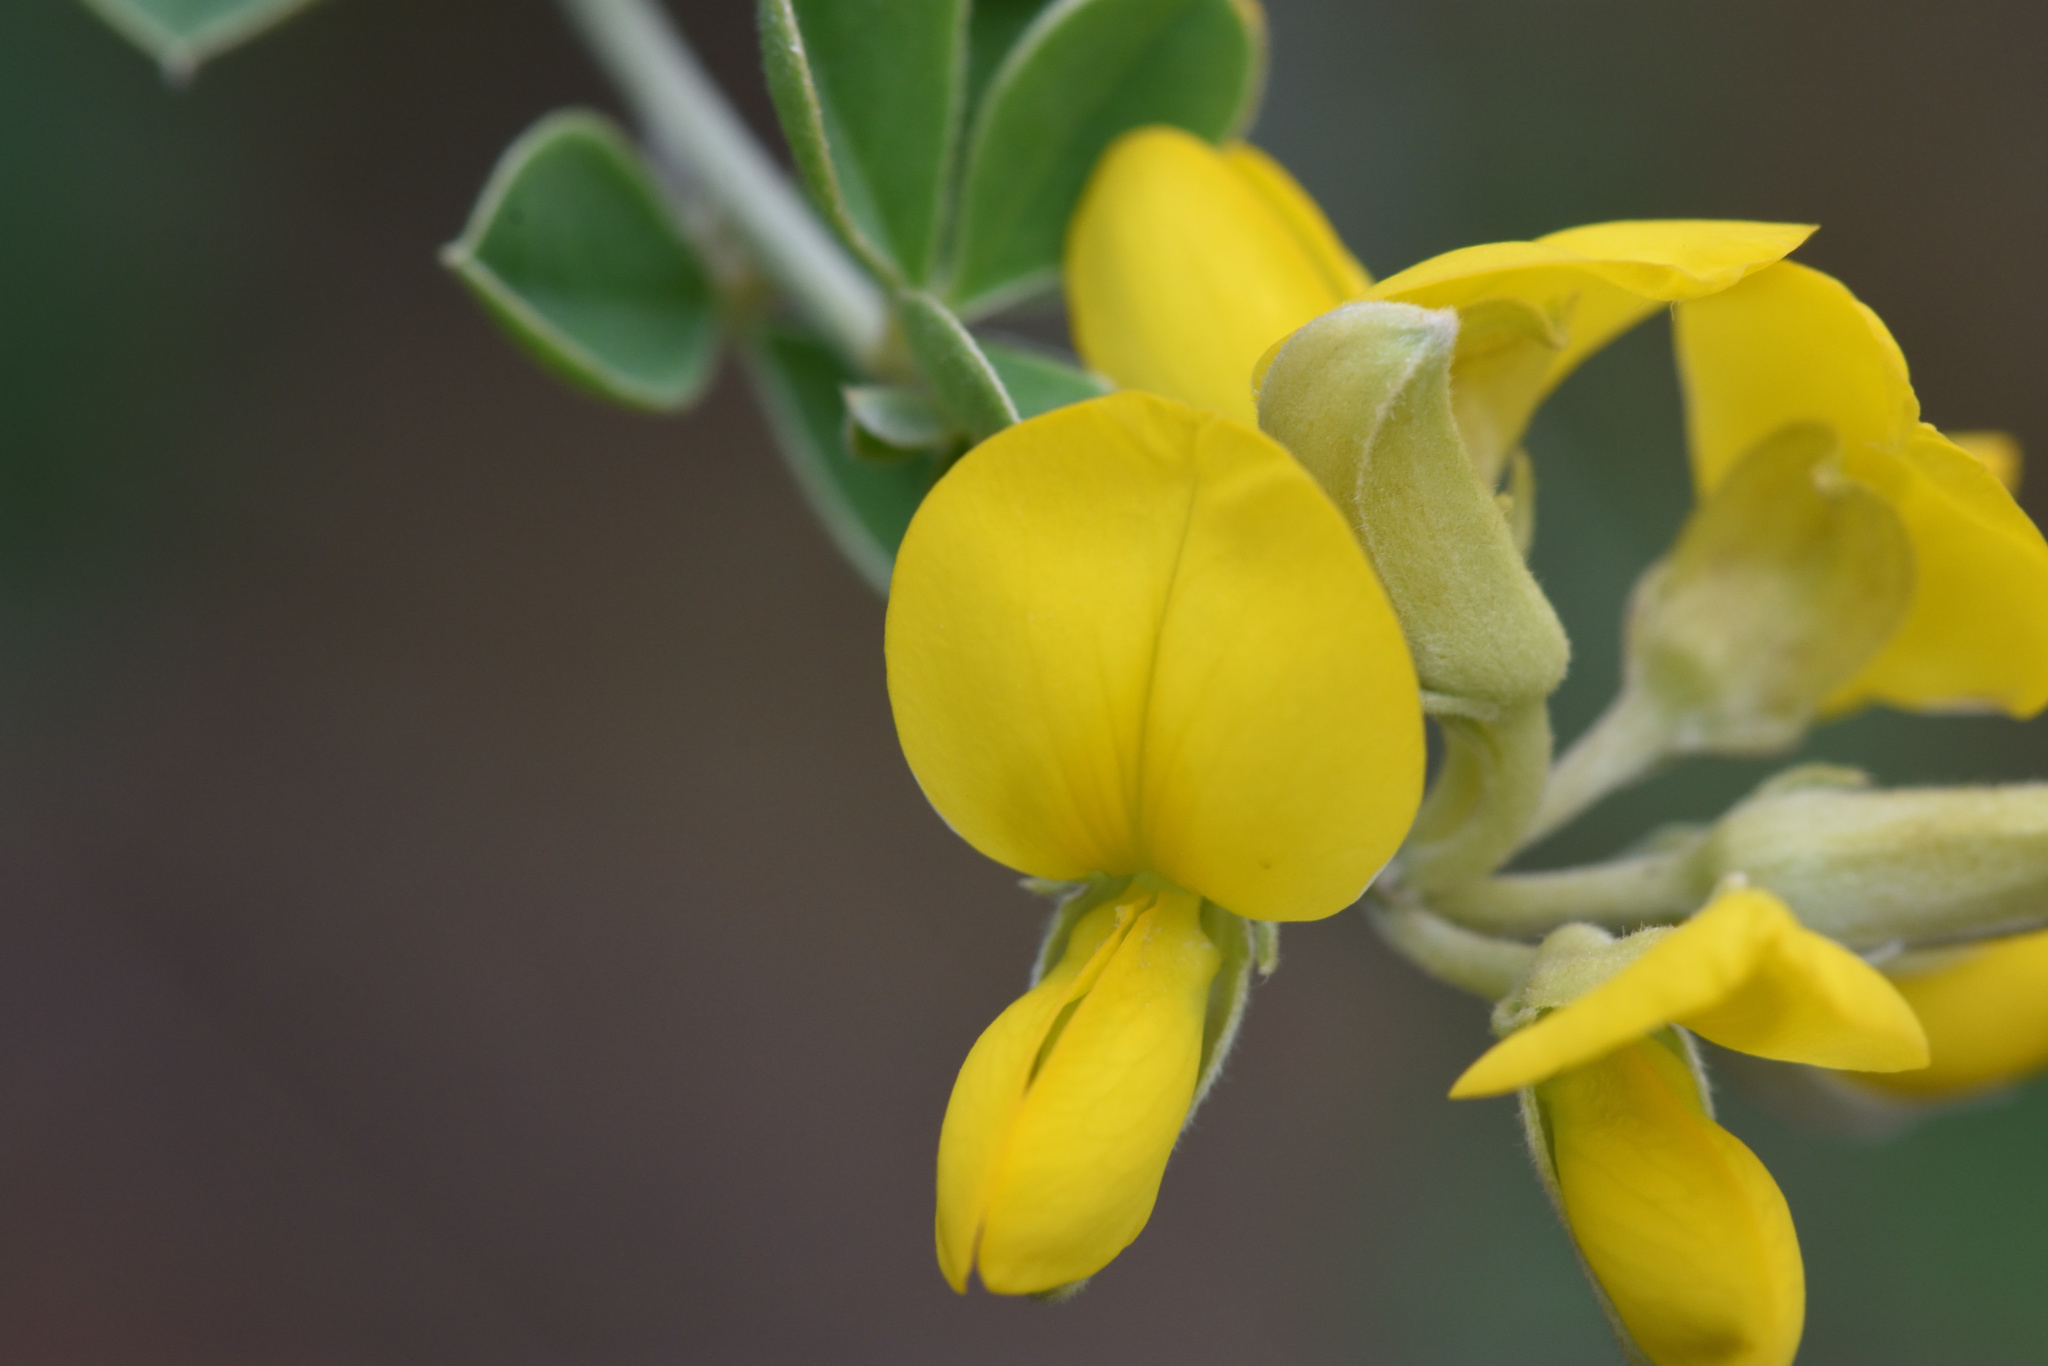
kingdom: Plantae
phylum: Tracheophyta
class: Magnoliopsida
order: Fabales
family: Fabaceae
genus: Argyrolobium
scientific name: Argyrolobium incanum
